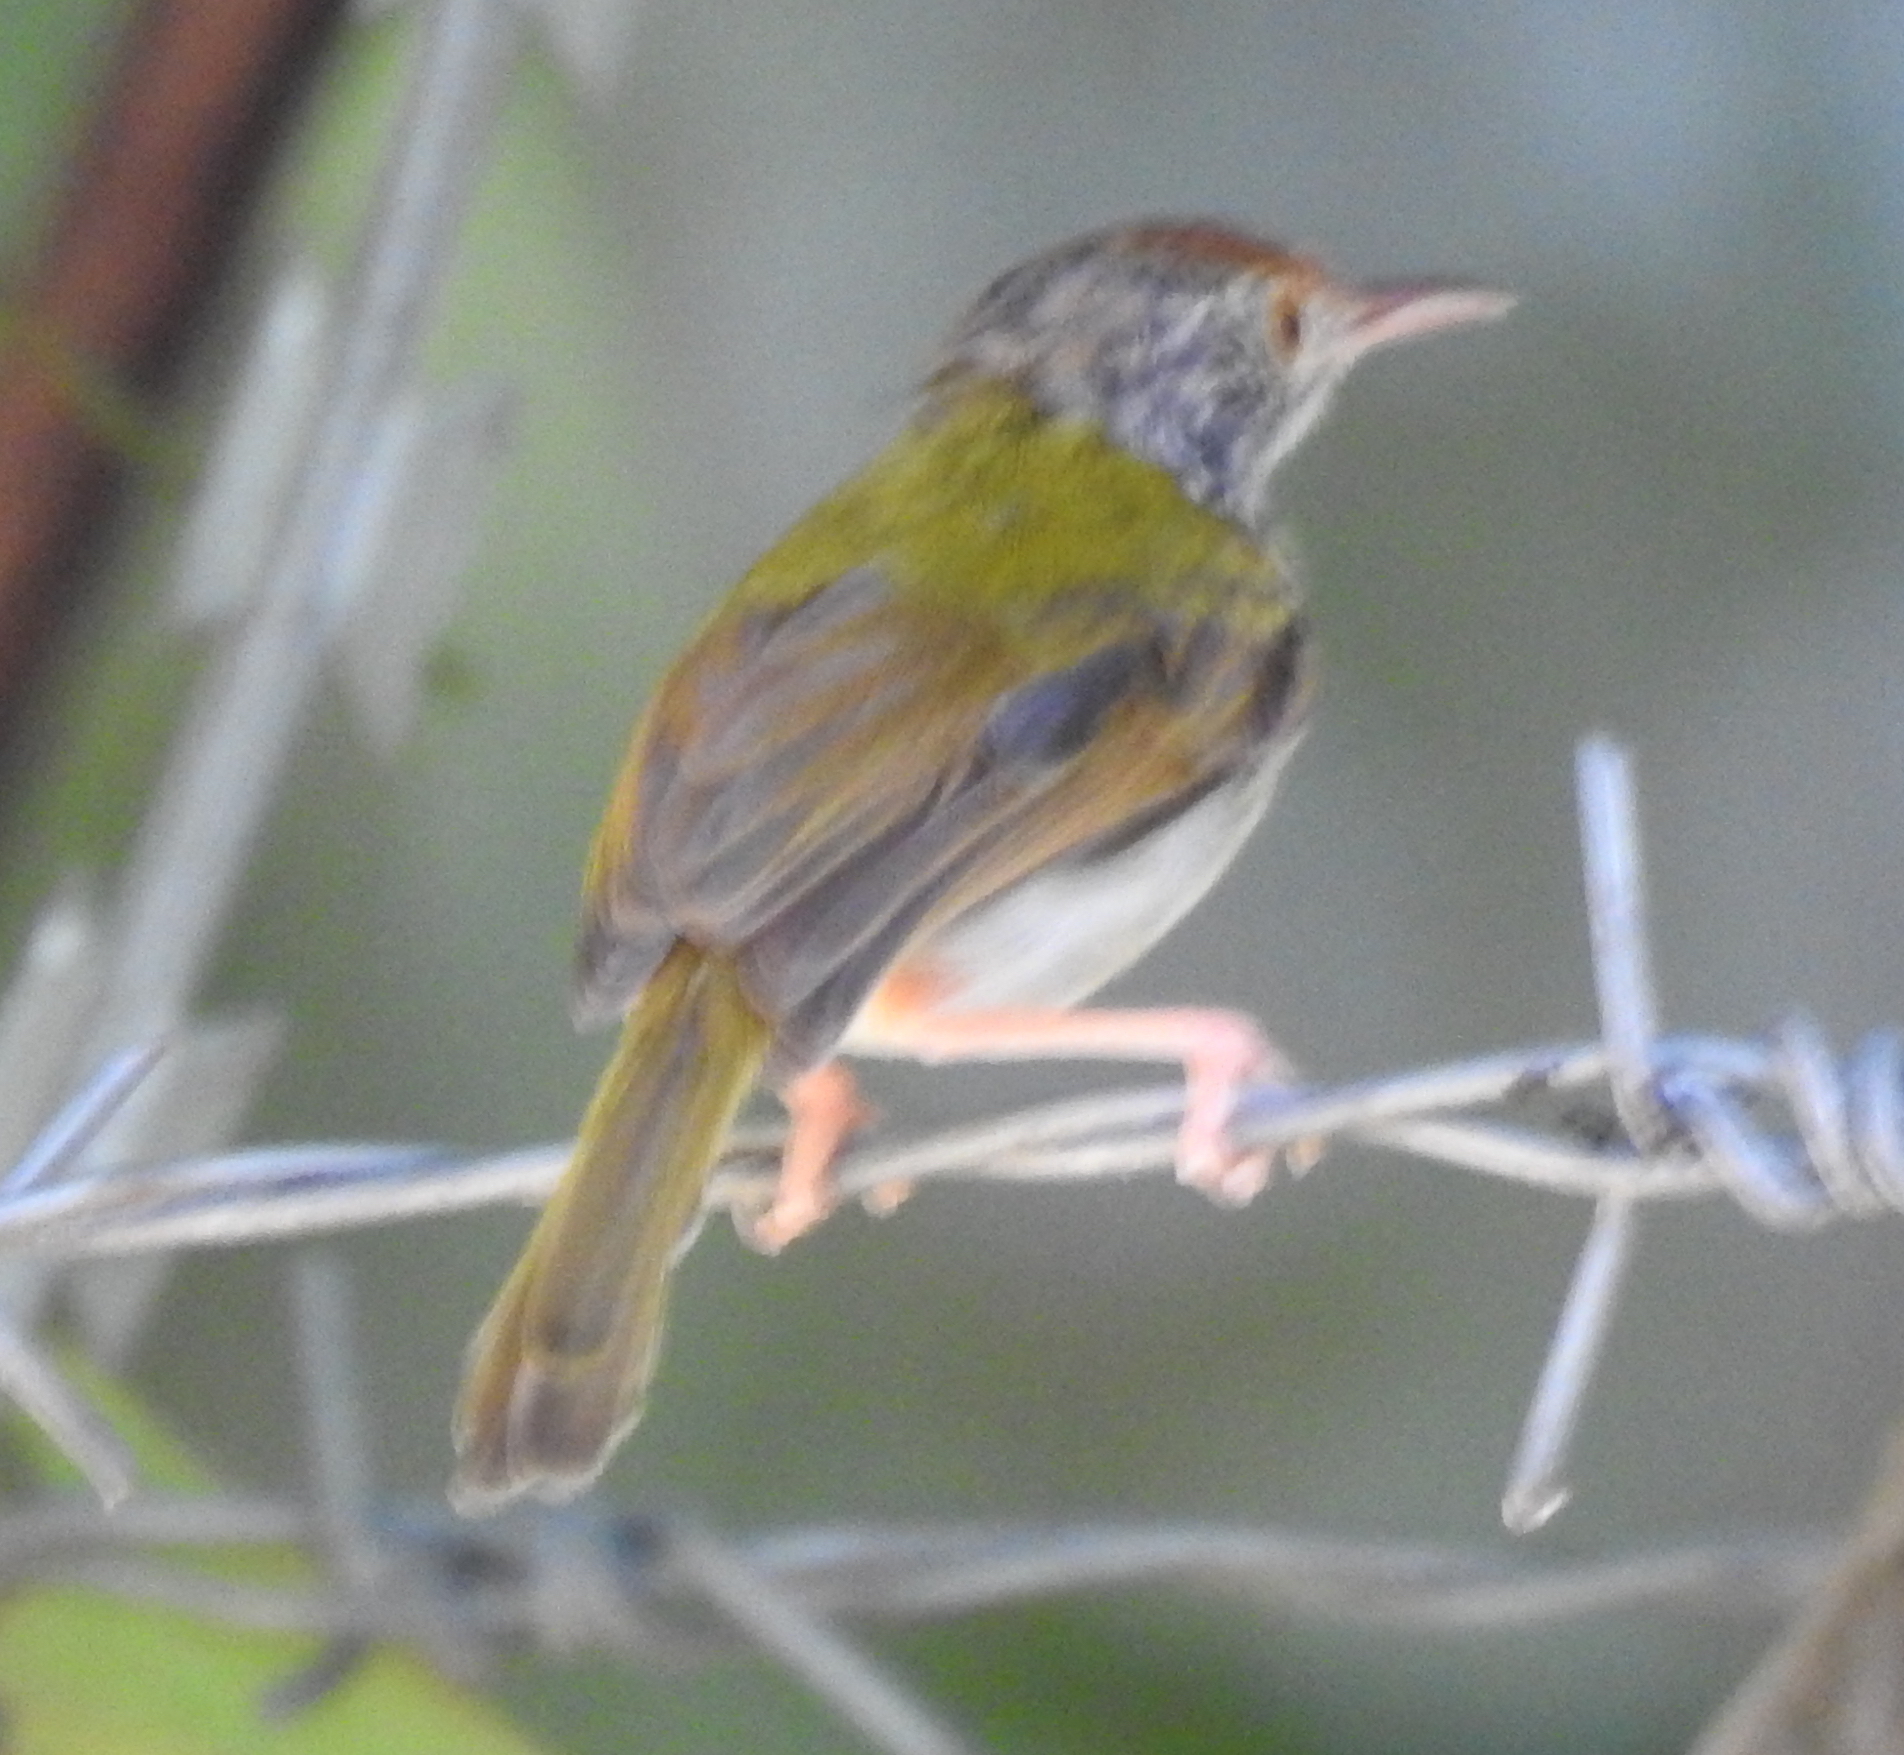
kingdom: Animalia
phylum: Chordata
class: Aves
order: Passeriformes
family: Cisticolidae
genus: Orthotomus
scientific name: Orthotomus sutorius
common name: Common tailorbird
